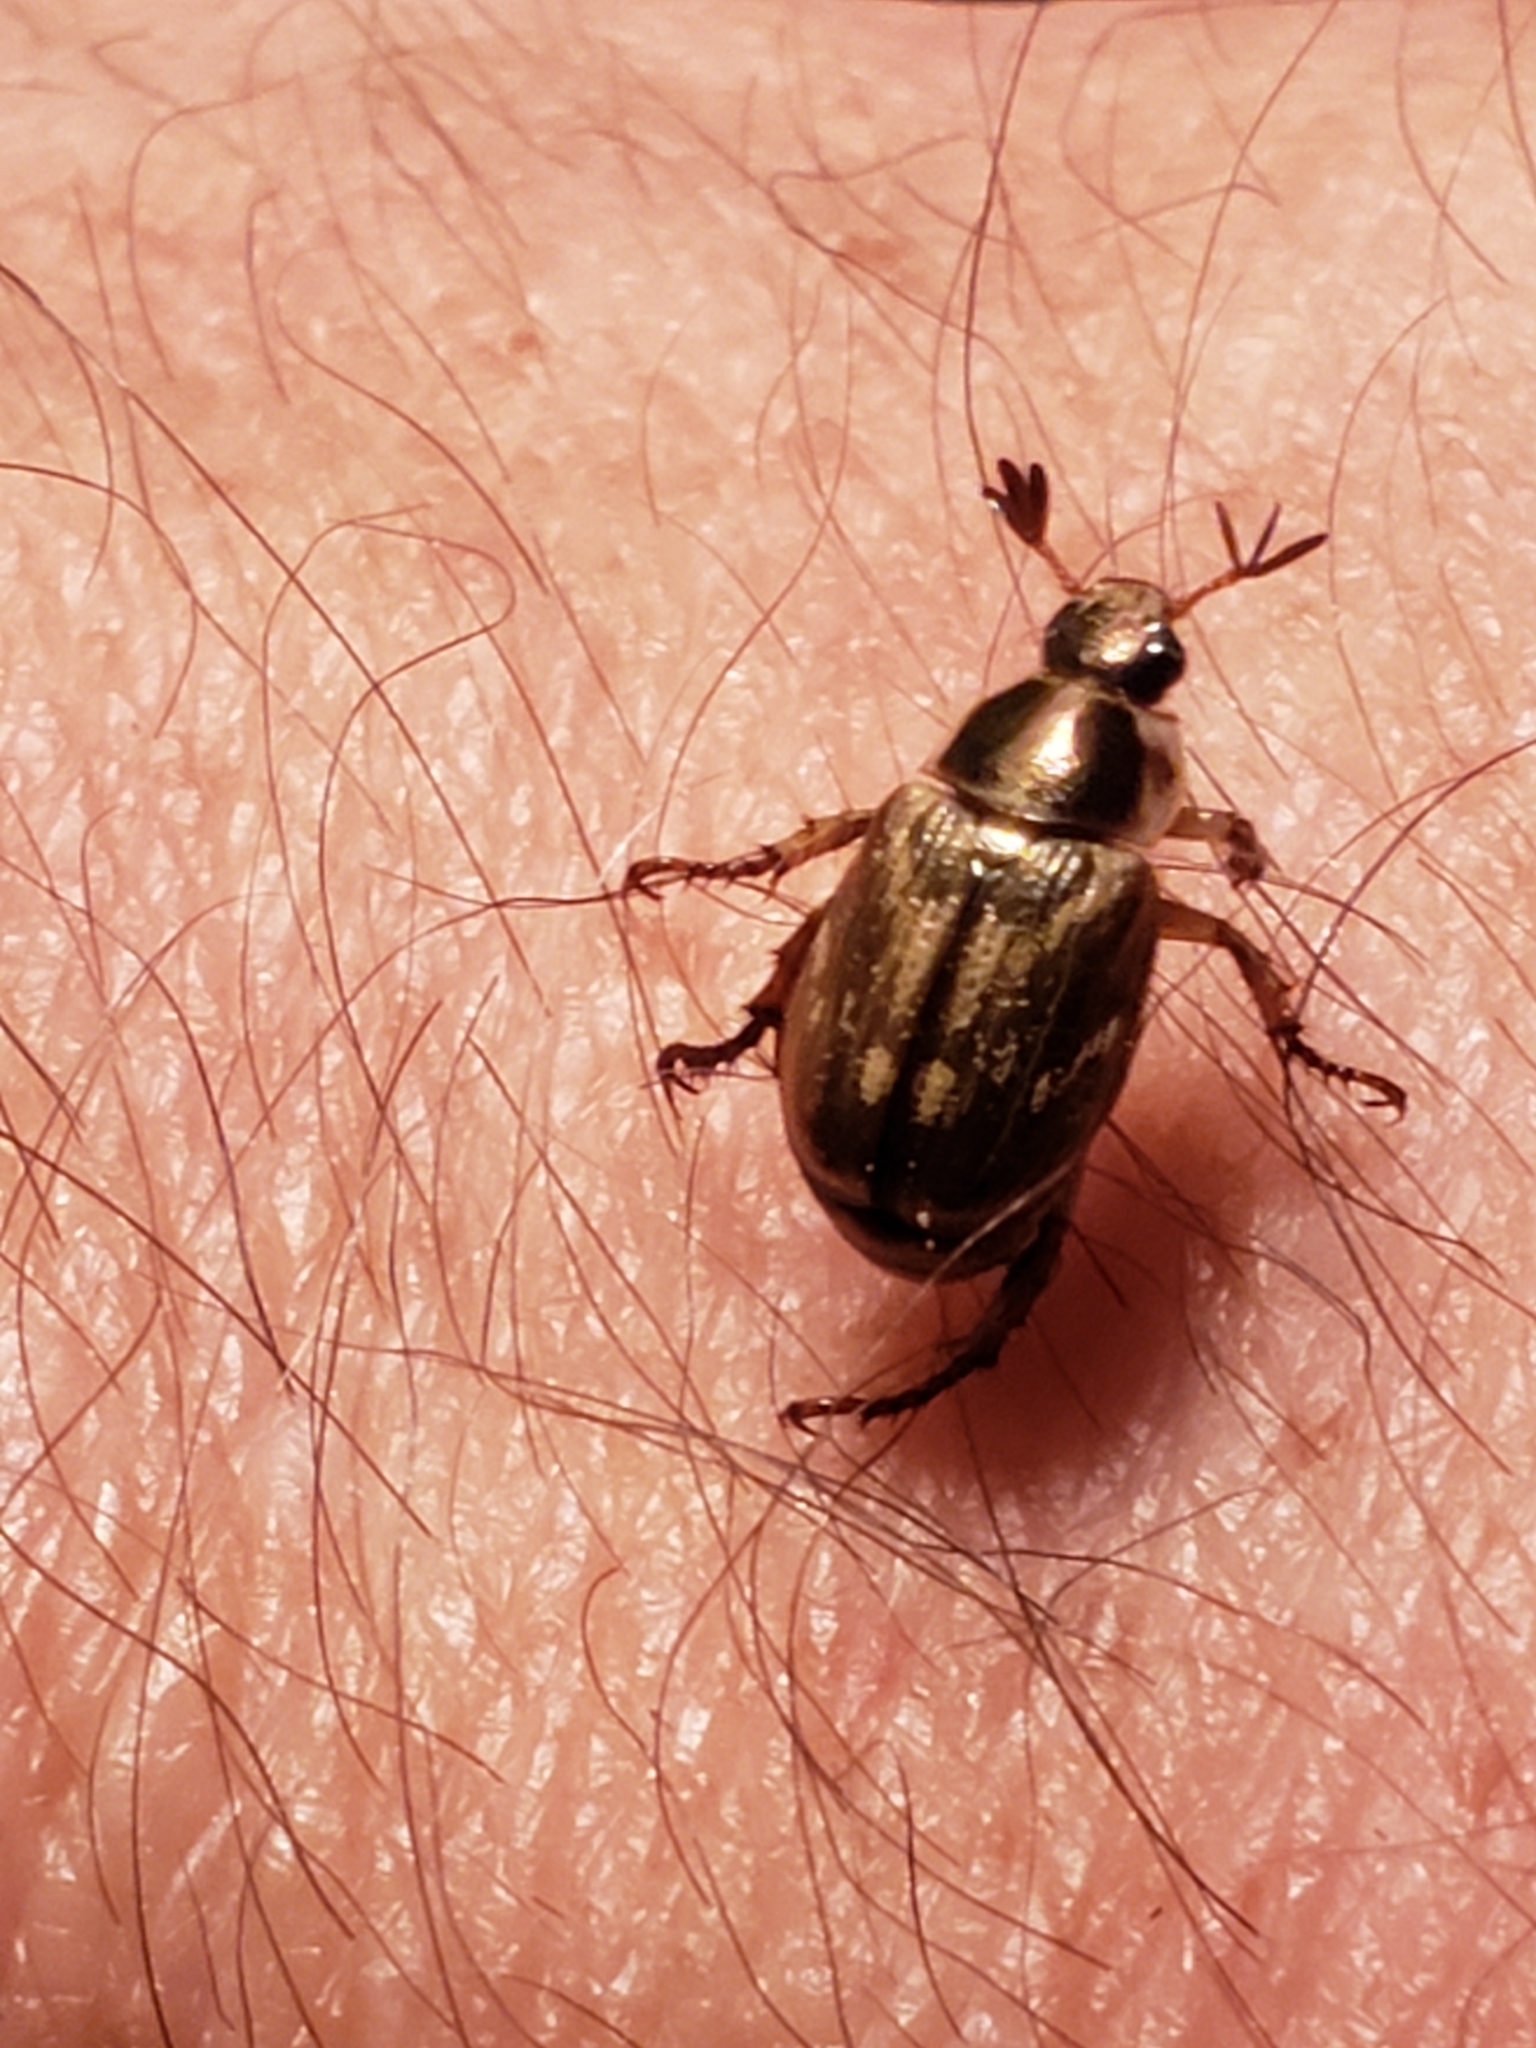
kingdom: Animalia
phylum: Arthropoda
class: Insecta
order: Coleoptera
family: Scarabaeidae
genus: Exomala
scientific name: Exomala orientalis
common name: Oriental beetle
